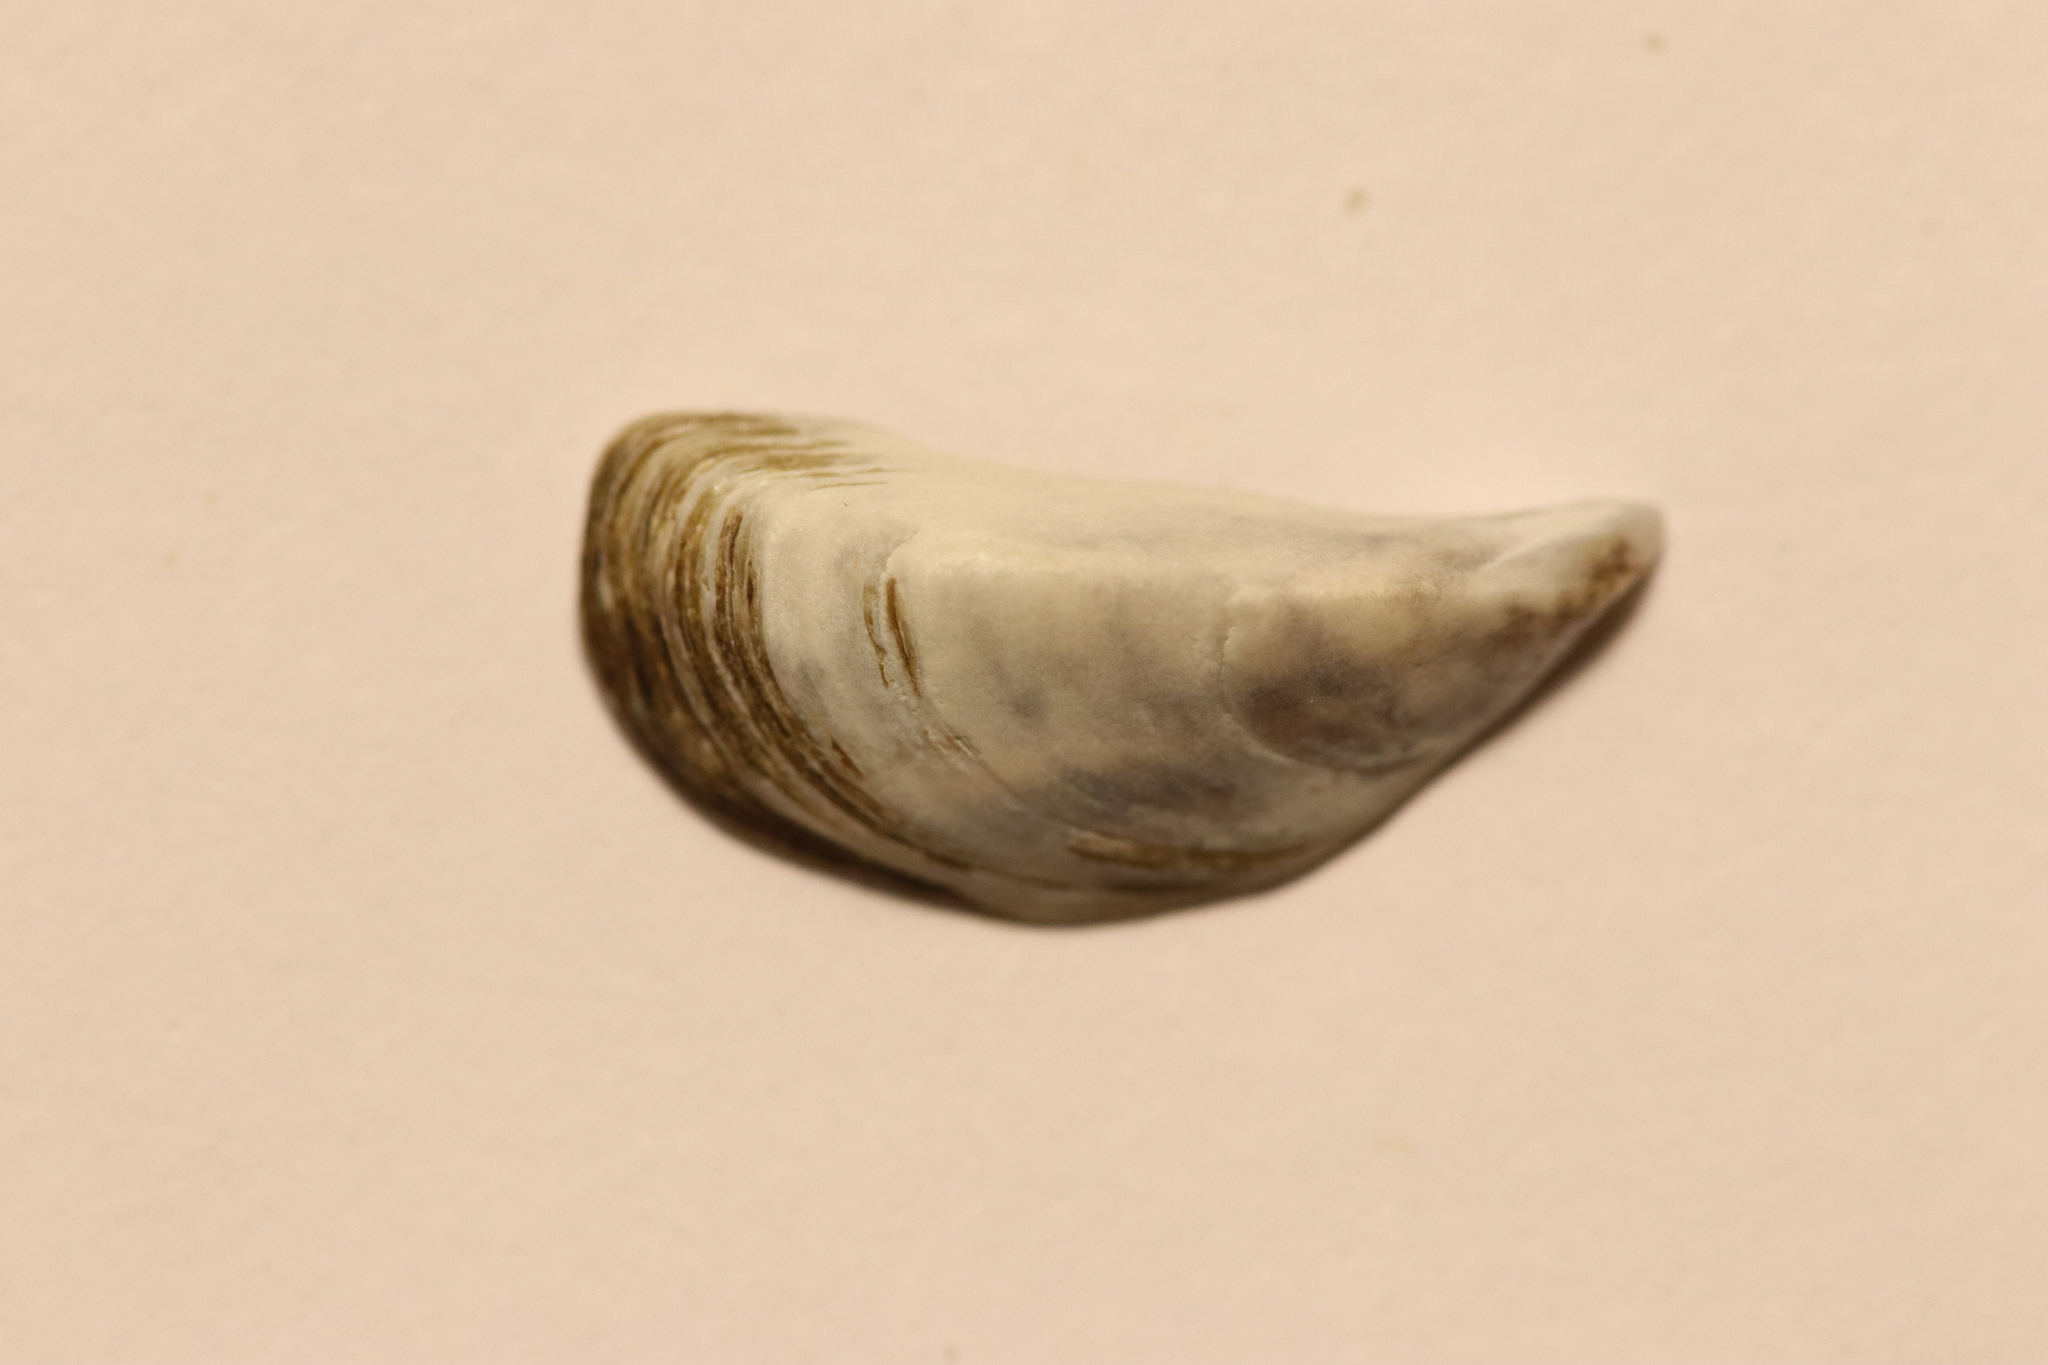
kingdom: Animalia
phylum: Mollusca
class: Bivalvia
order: Myida
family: Dreissenidae
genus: Dreissena
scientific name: Dreissena polymorpha
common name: Zebra mussel
